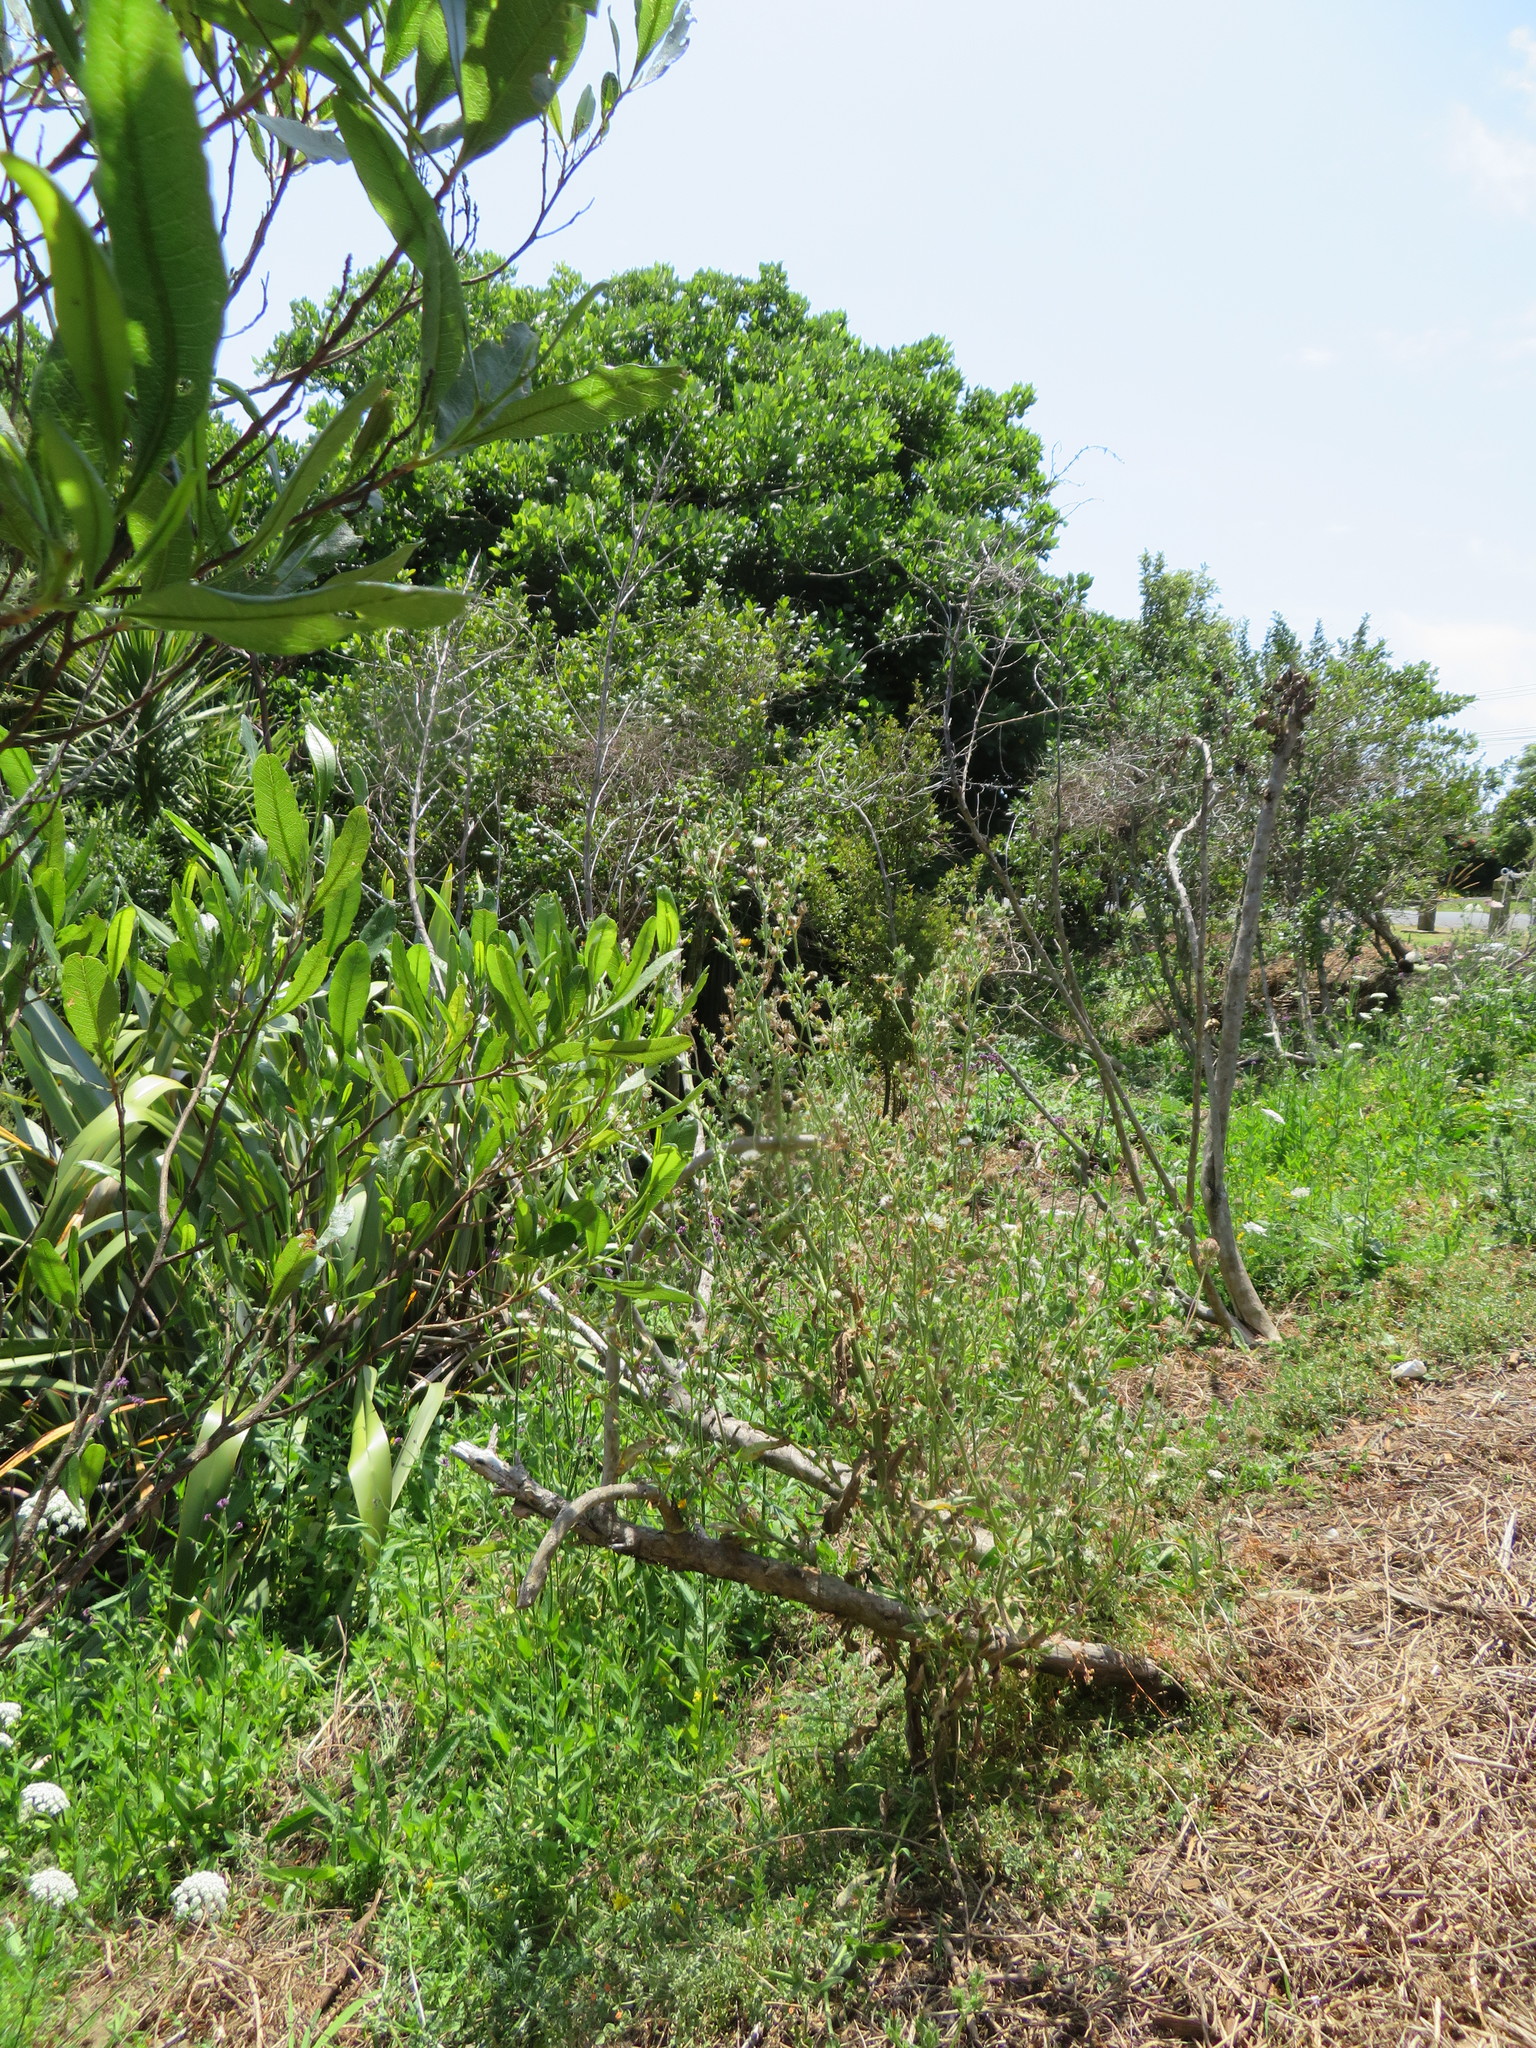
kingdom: Plantae
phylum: Tracheophyta
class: Magnoliopsida
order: Asterales
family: Asteraceae
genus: Helminthotheca
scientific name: Helminthotheca echioides
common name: Ox-tongue
